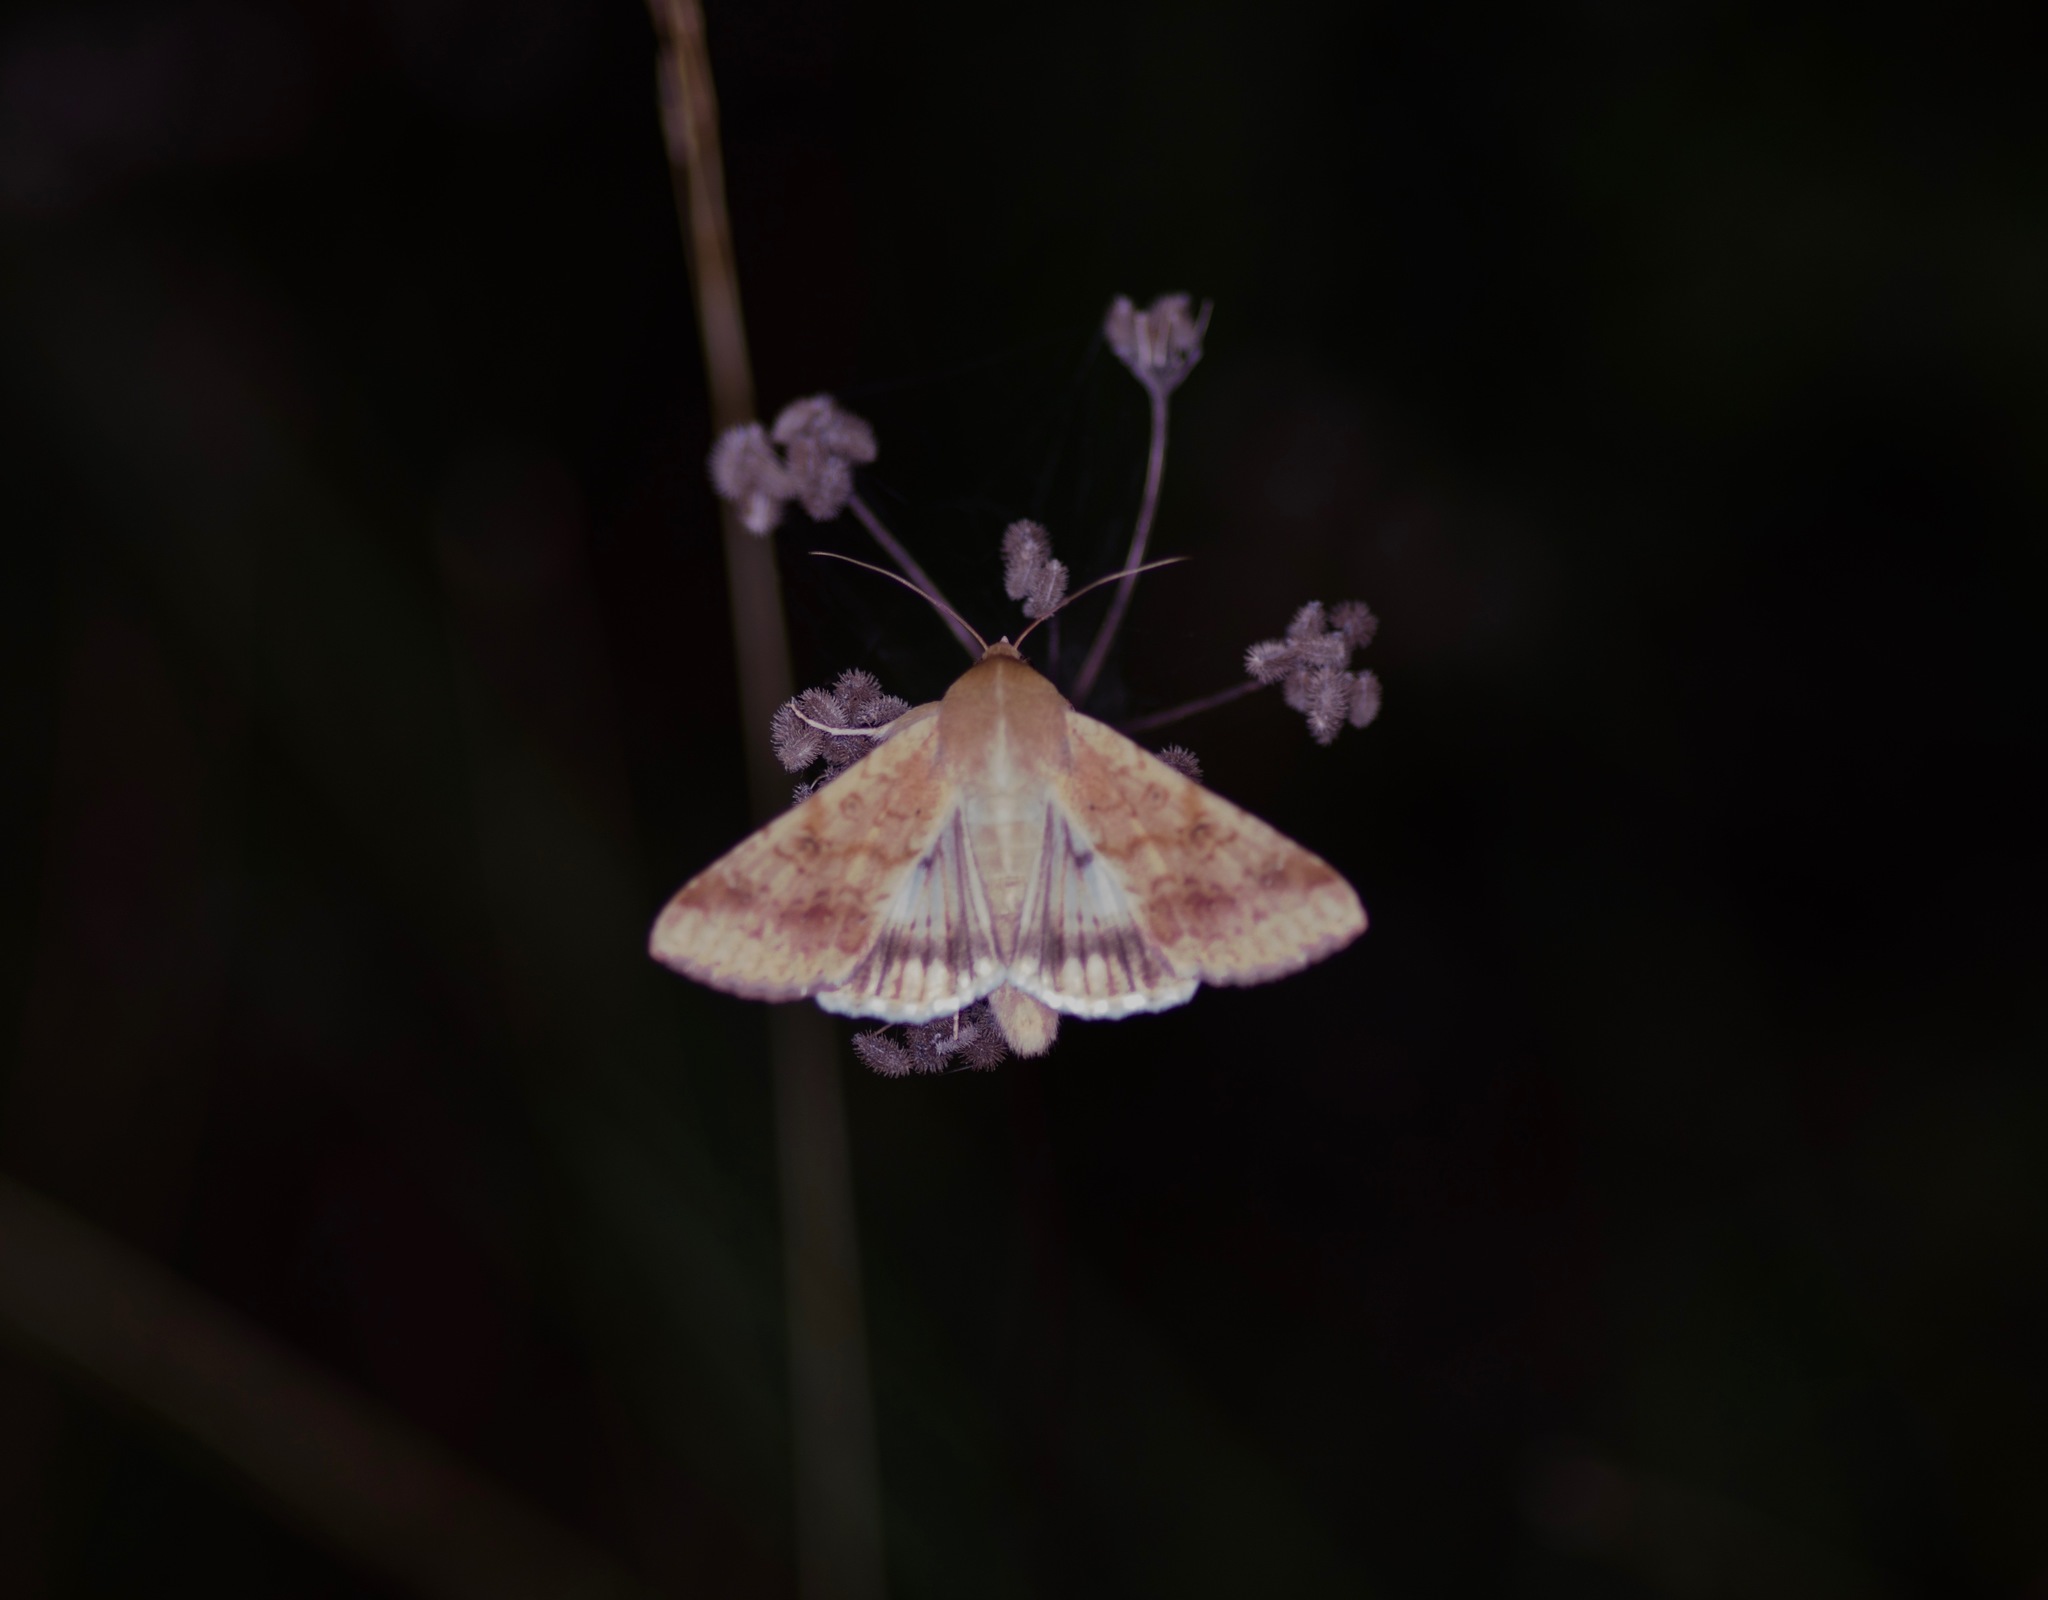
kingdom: Animalia
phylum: Arthropoda
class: Insecta
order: Lepidoptera
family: Noctuidae
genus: Helicoverpa
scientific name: Helicoverpa zea
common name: Bollworm
